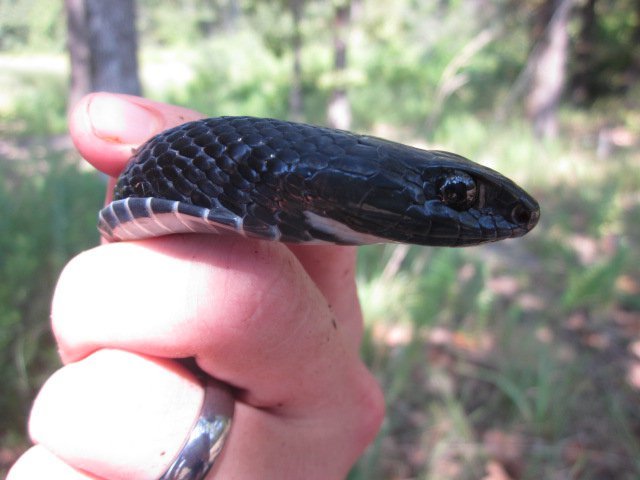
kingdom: Animalia
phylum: Chordata
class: Squamata
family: Colubridae
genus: Coluber
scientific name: Coluber constrictor
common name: Eastern racer
